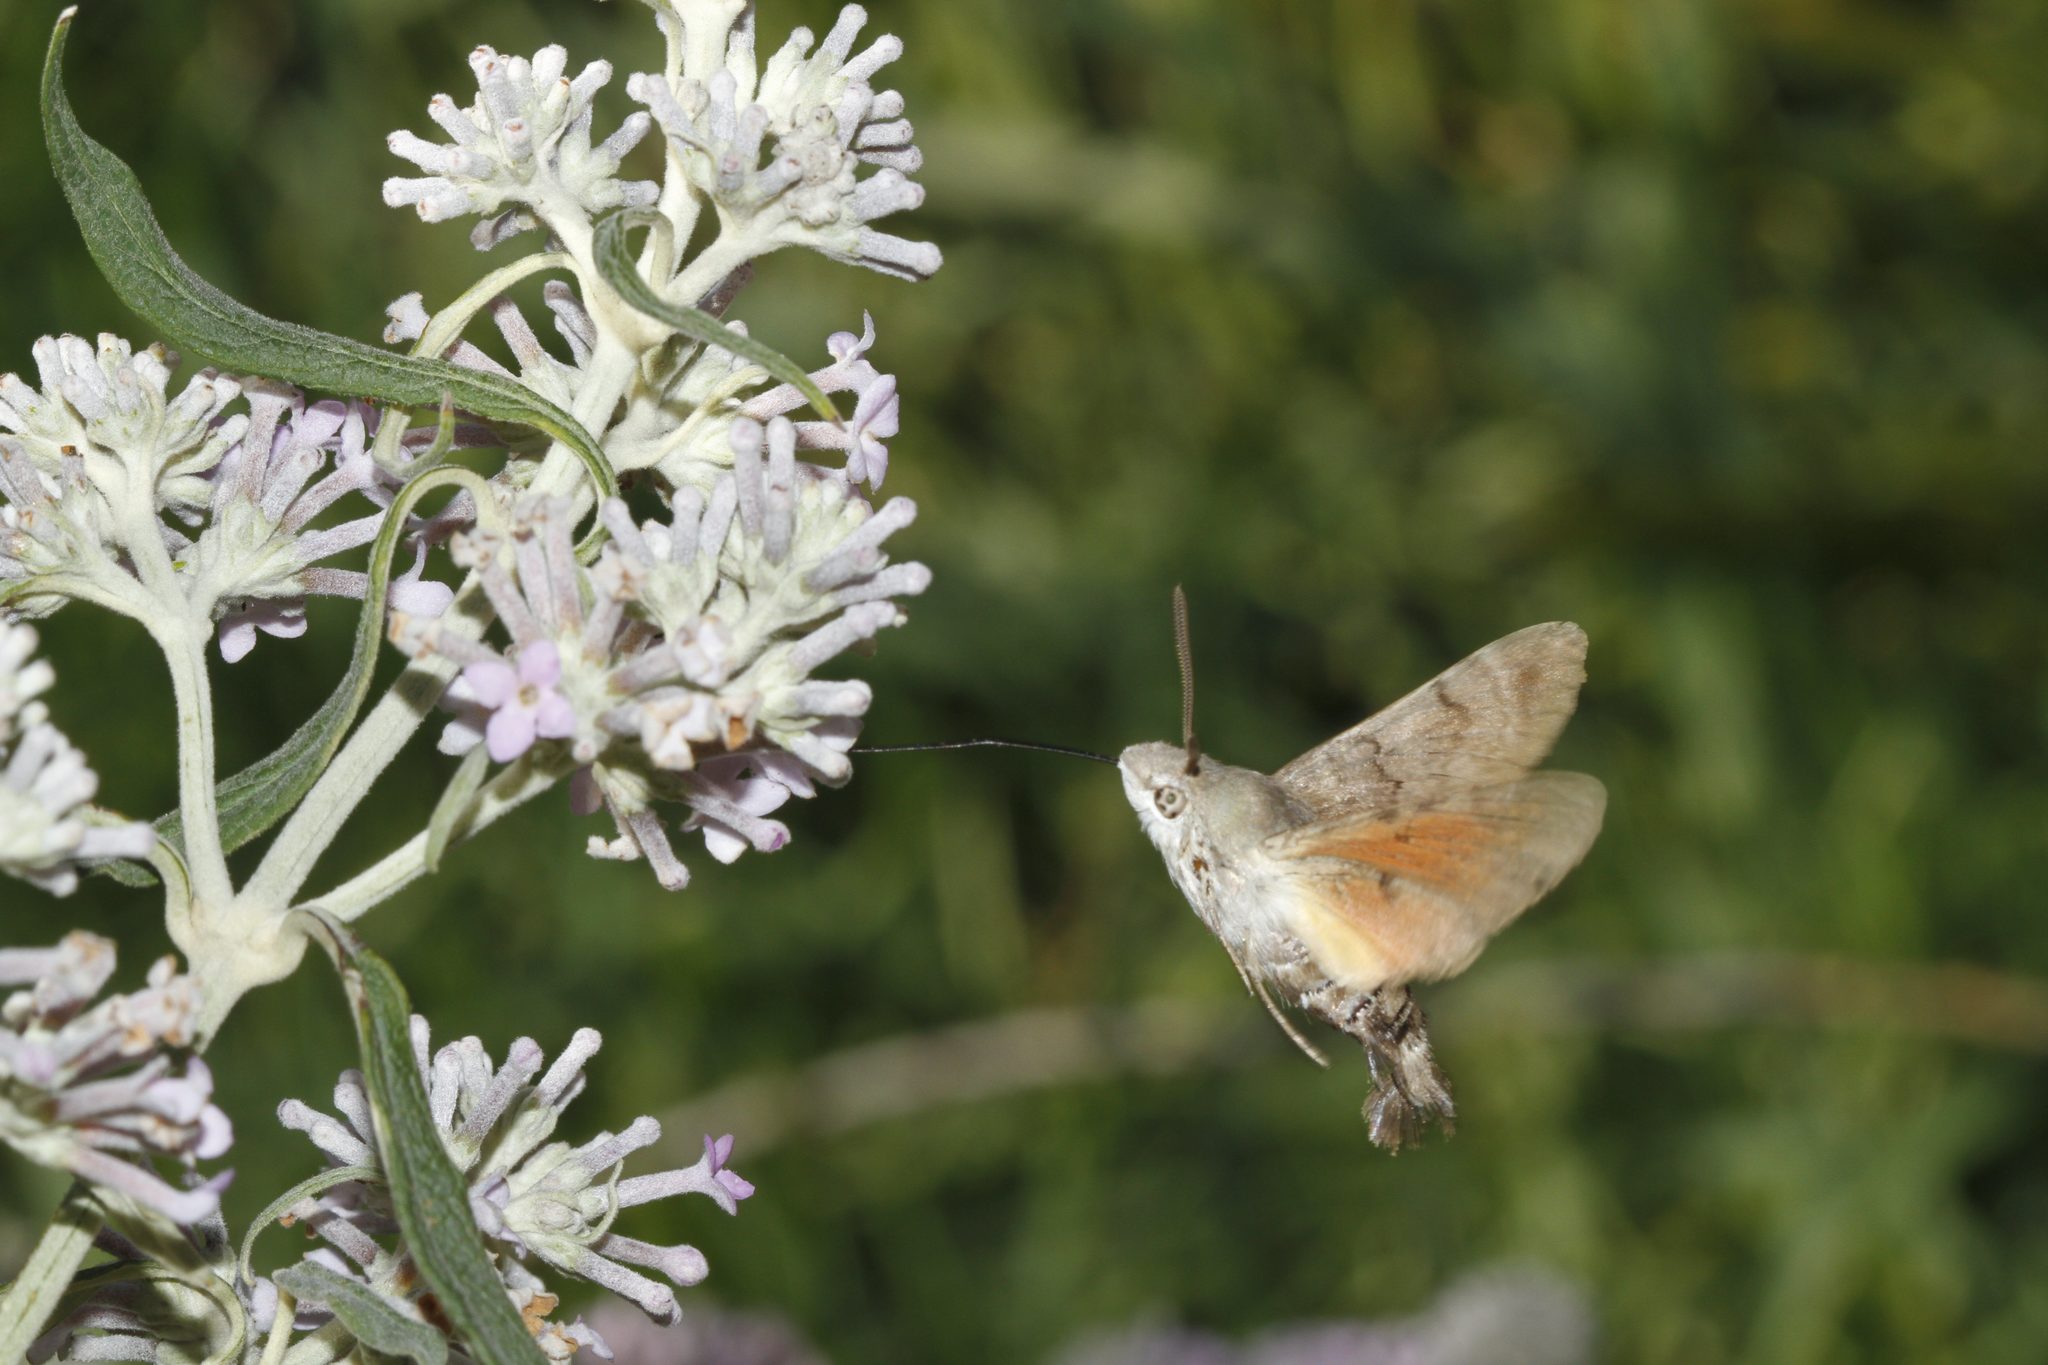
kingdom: Animalia
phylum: Arthropoda
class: Insecta
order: Lepidoptera
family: Sphingidae
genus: Macroglossum
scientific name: Macroglossum stellatarum
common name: Humming-bird hawk-moth
